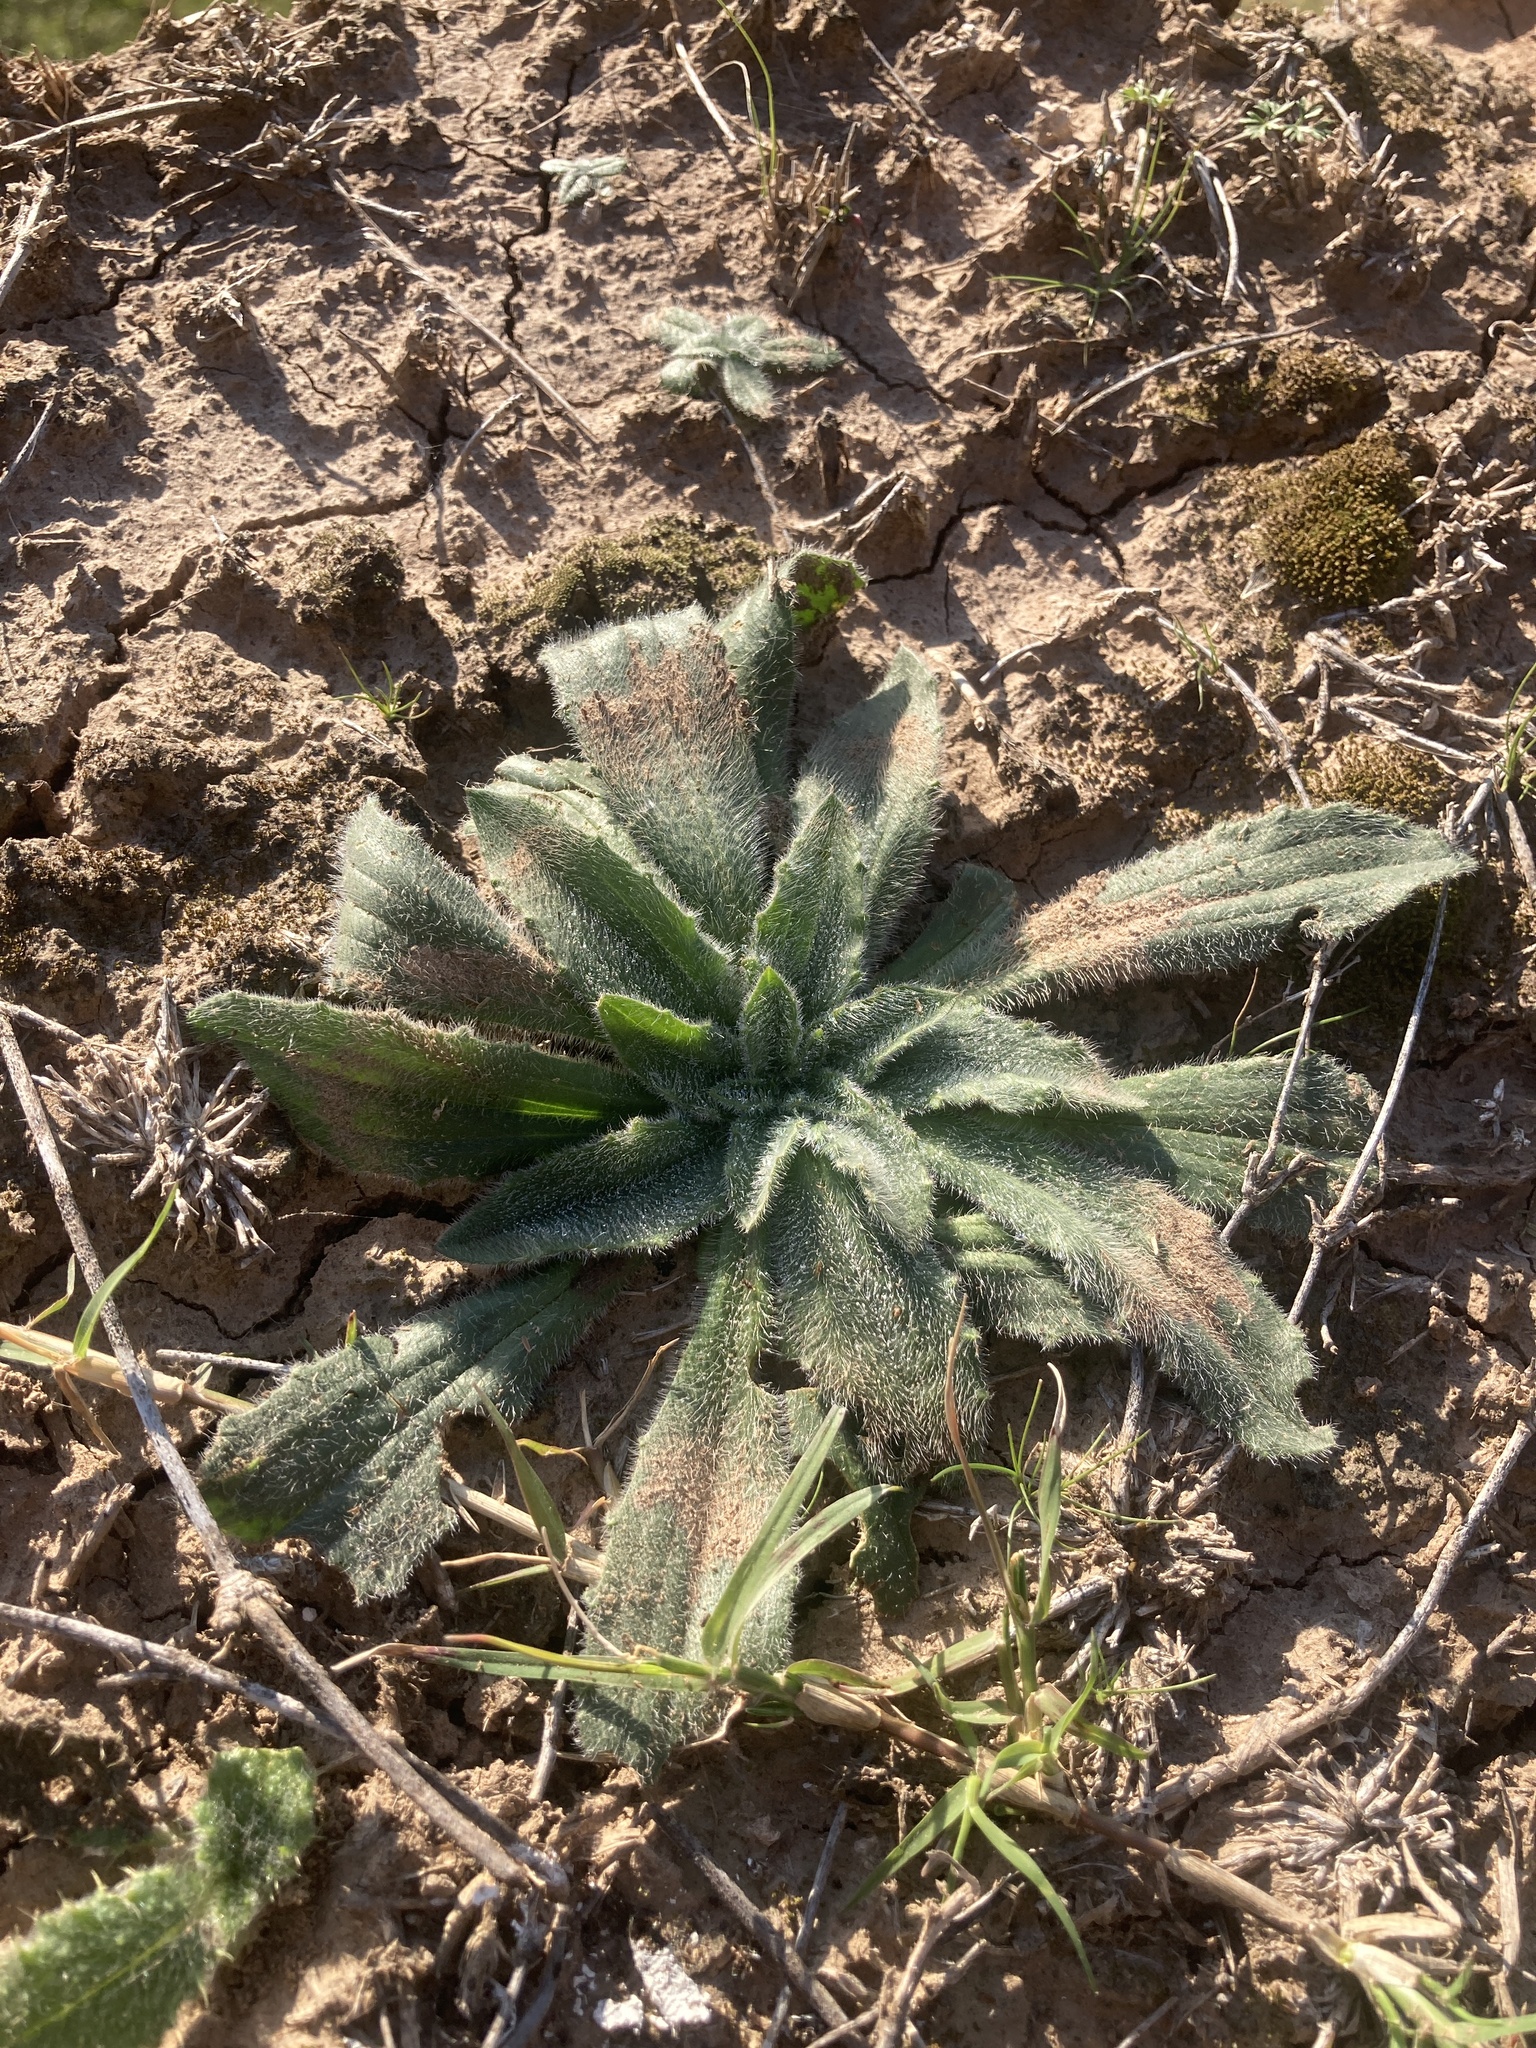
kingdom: Plantae
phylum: Tracheophyta
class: Magnoliopsida
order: Lamiales
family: Plantaginaceae
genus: Plantago
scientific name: Plantago tomentosa
